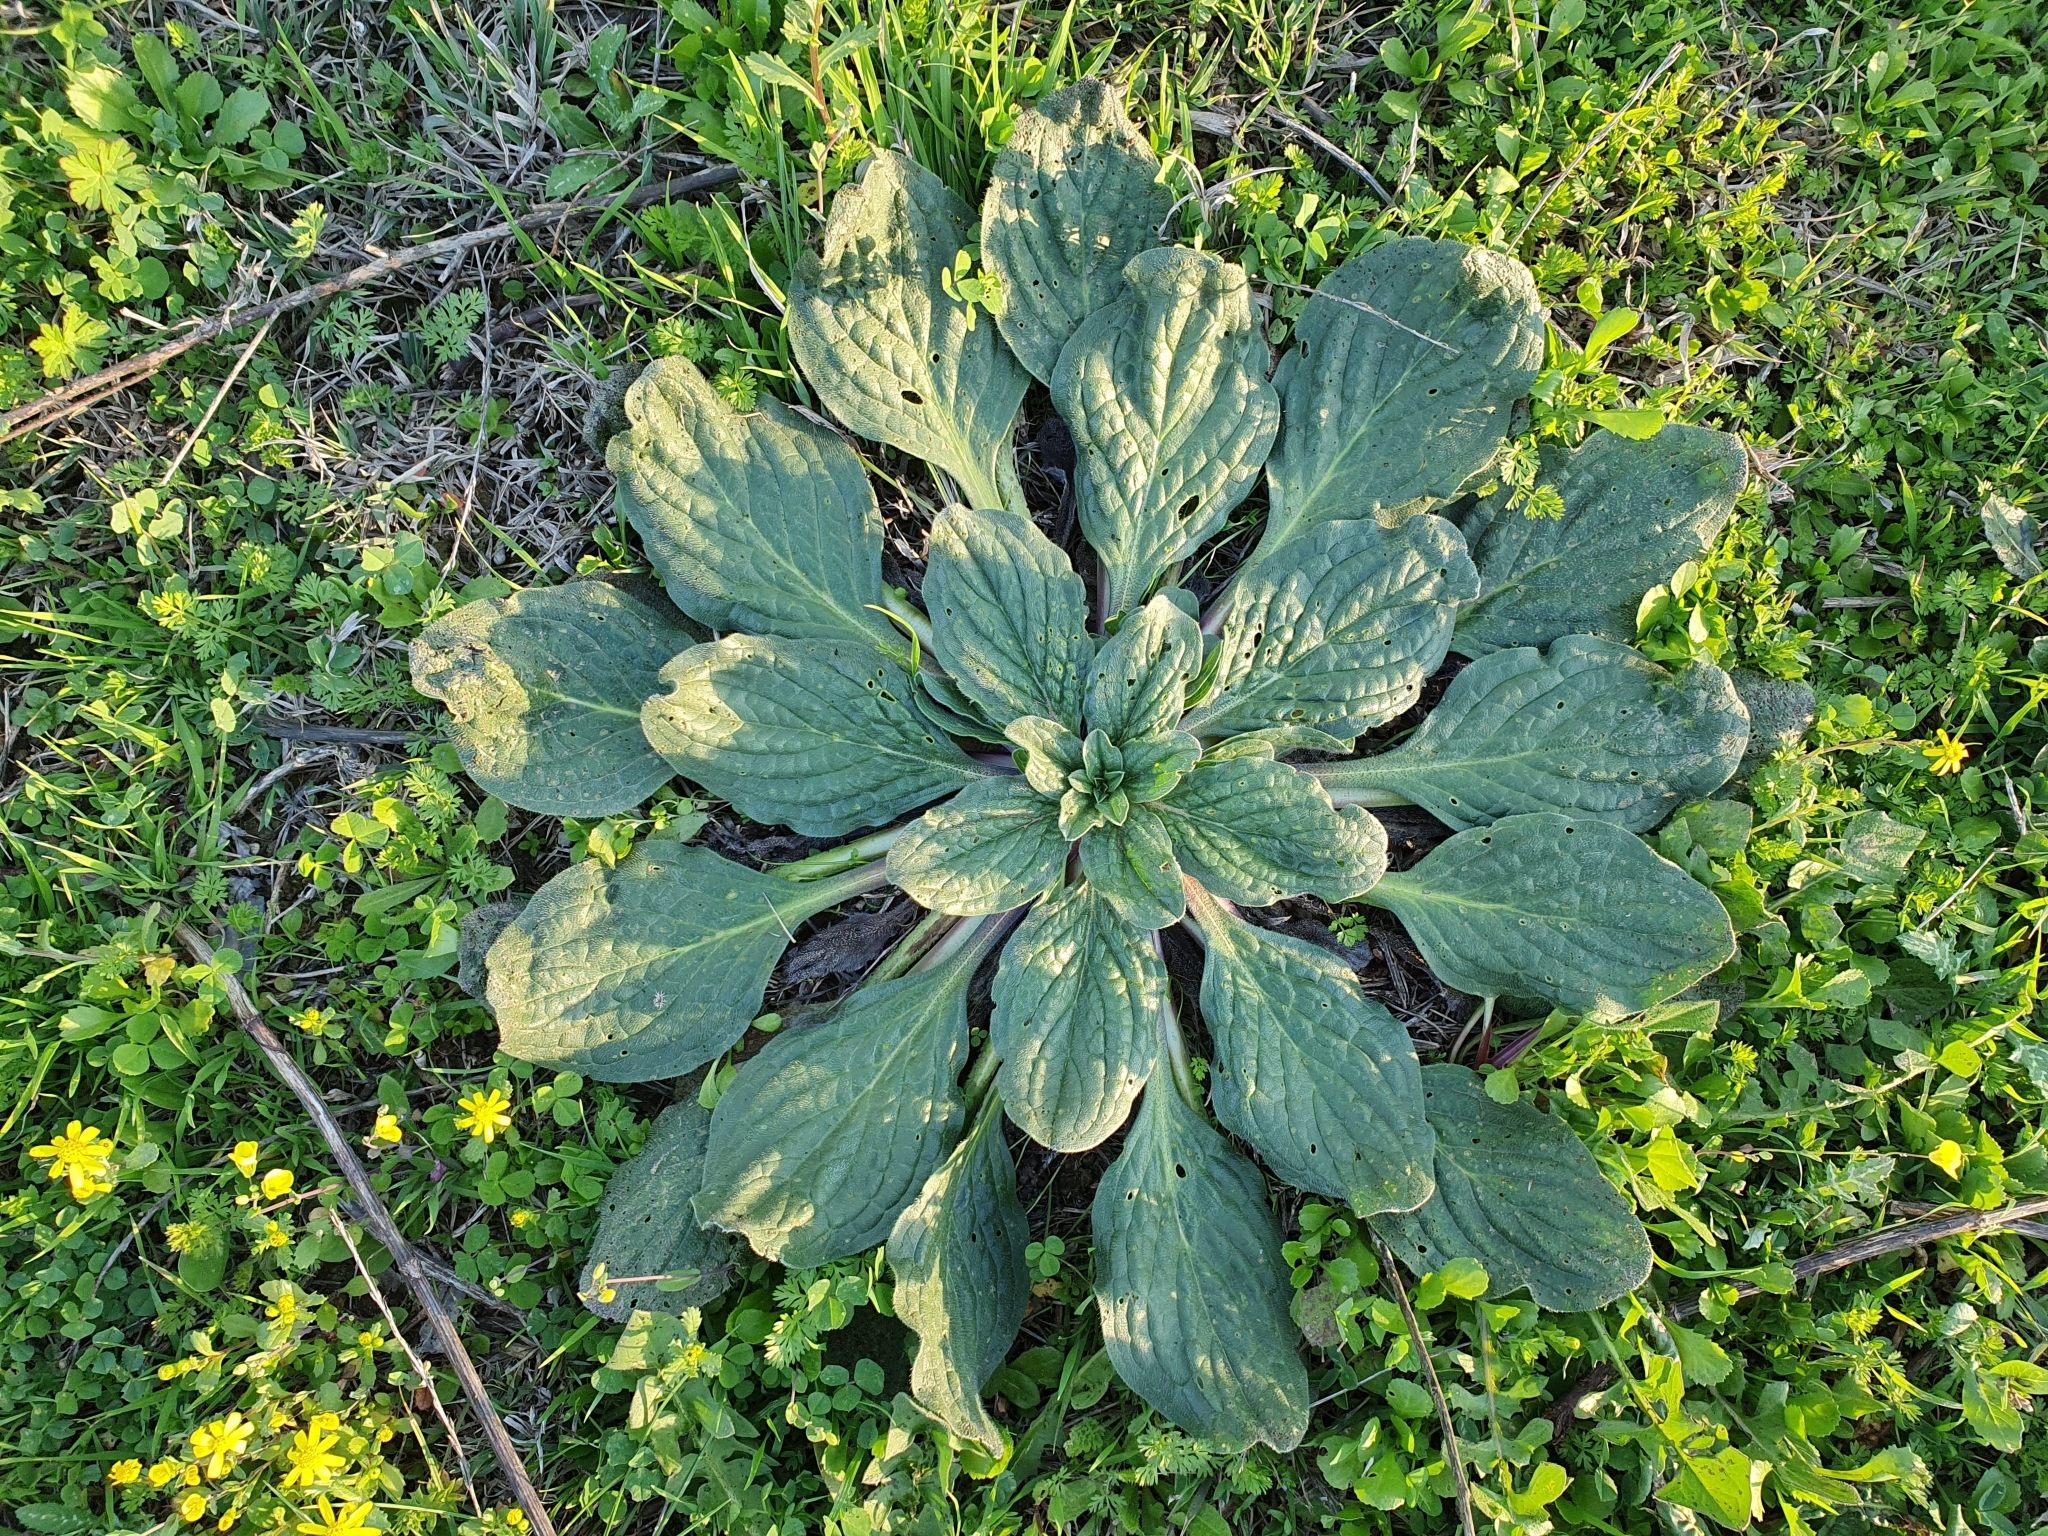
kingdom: Plantae
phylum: Tracheophyta
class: Magnoliopsida
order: Boraginales
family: Boraginaceae
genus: Echium
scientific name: Echium plantagineum
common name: Purple viper's-bugloss
